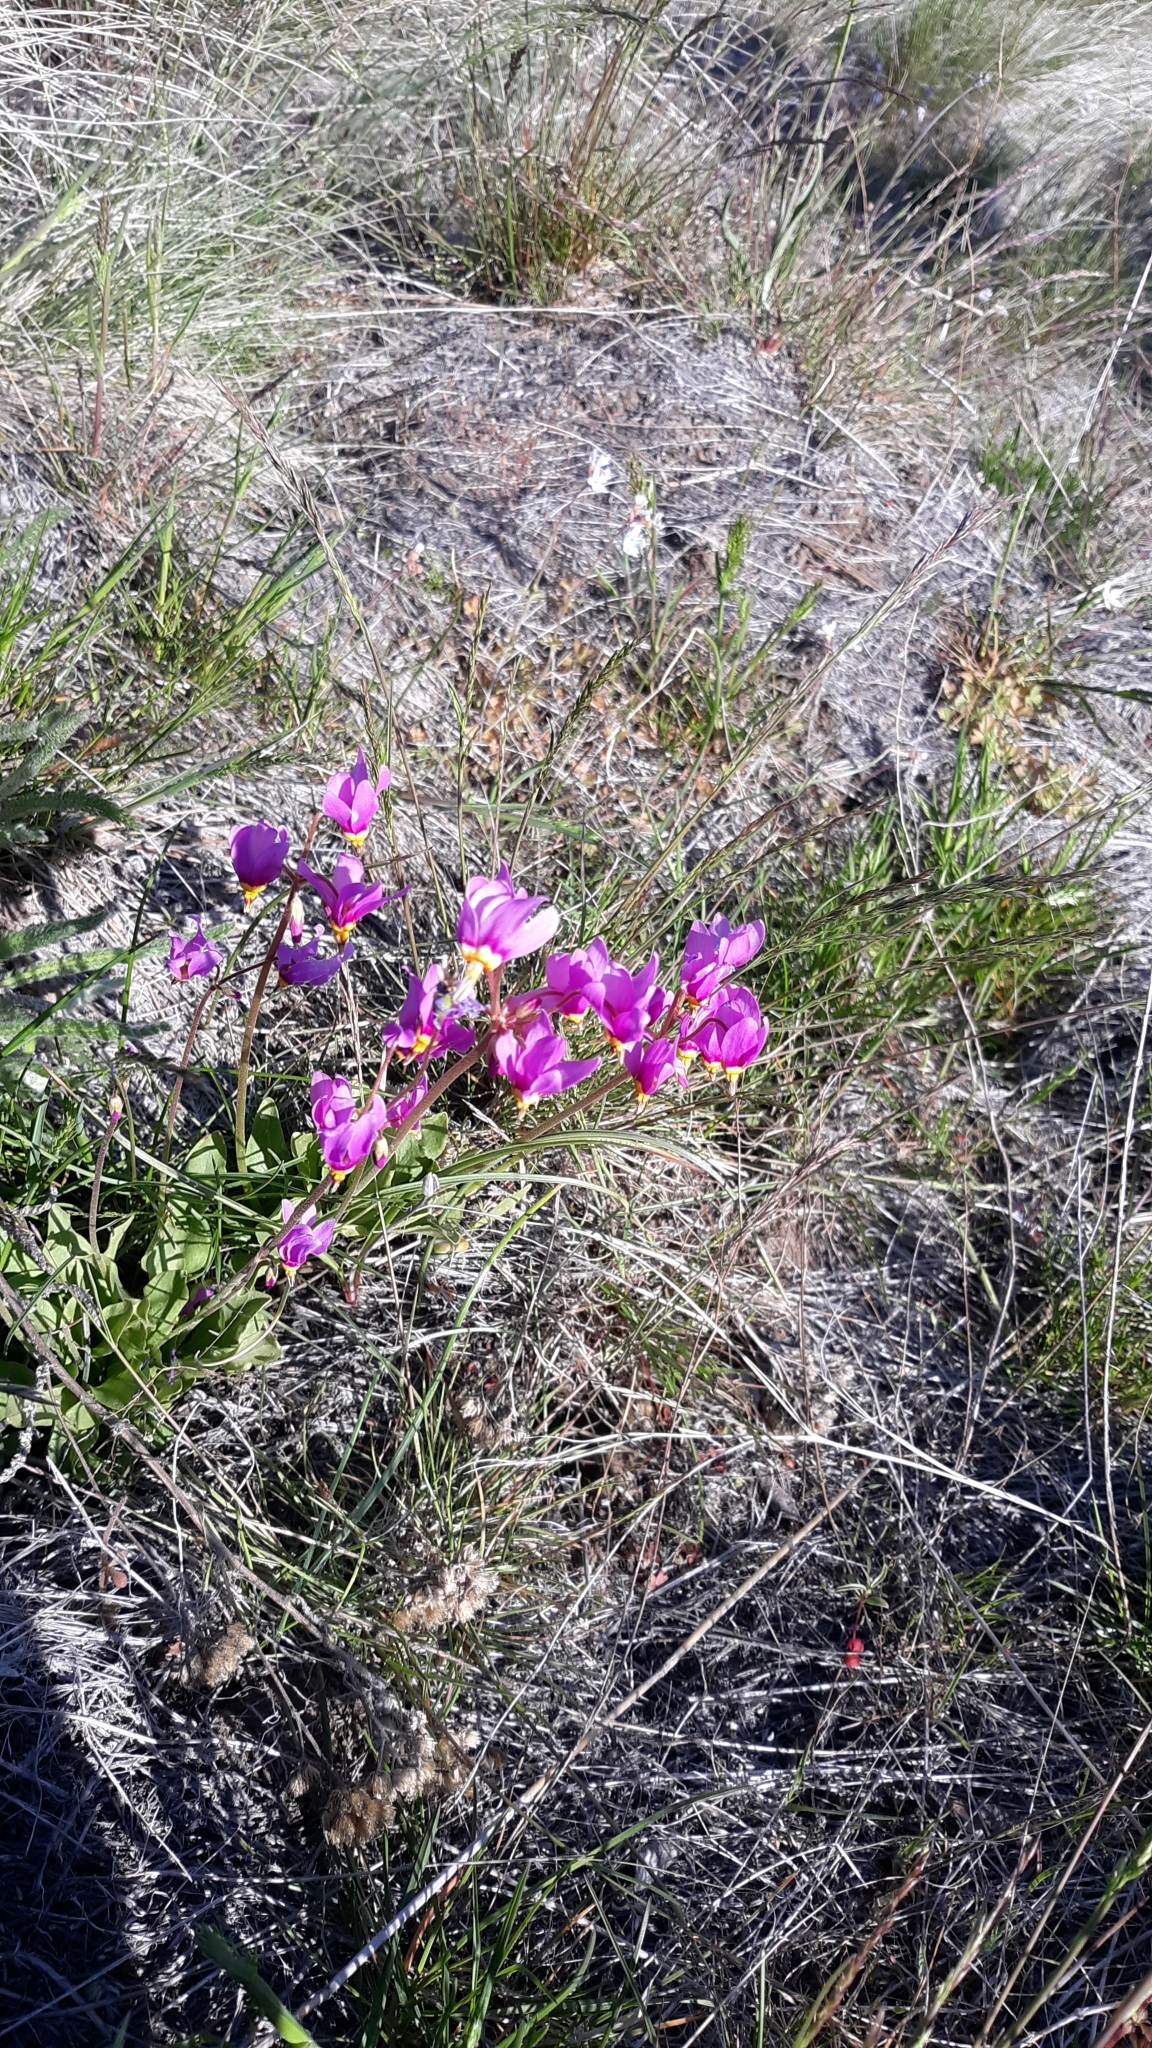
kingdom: Plantae
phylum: Tracheophyta
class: Magnoliopsida
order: Ericales
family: Primulaceae
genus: Dodecatheon
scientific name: Dodecatheon pulchellum
